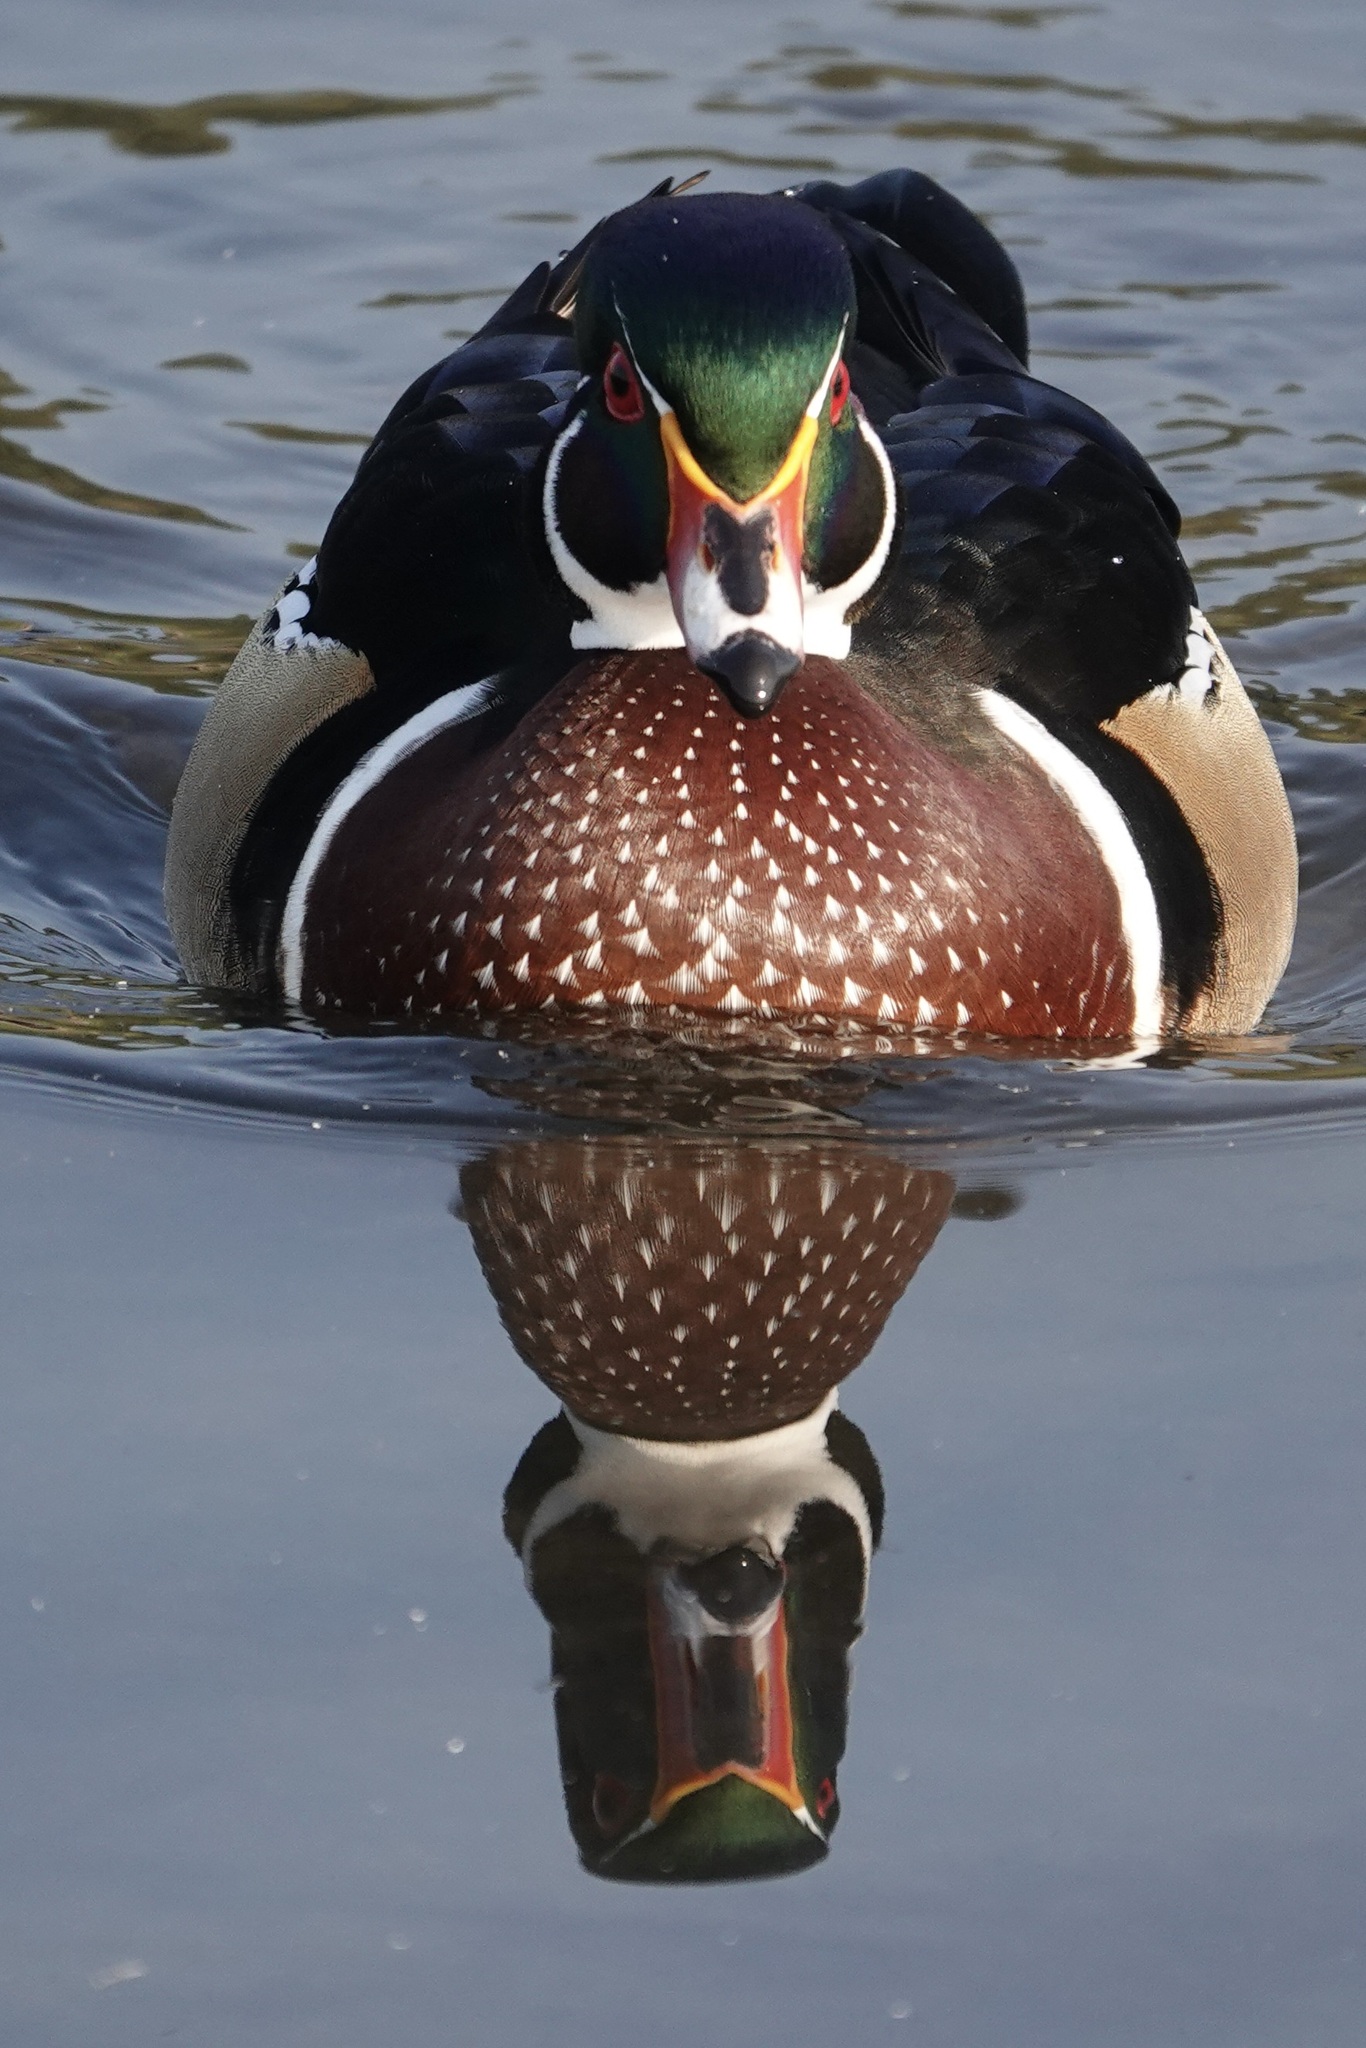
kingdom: Animalia
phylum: Chordata
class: Aves
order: Anseriformes
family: Anatidae
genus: Aix
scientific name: Aix sponsa
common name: Wood duck
